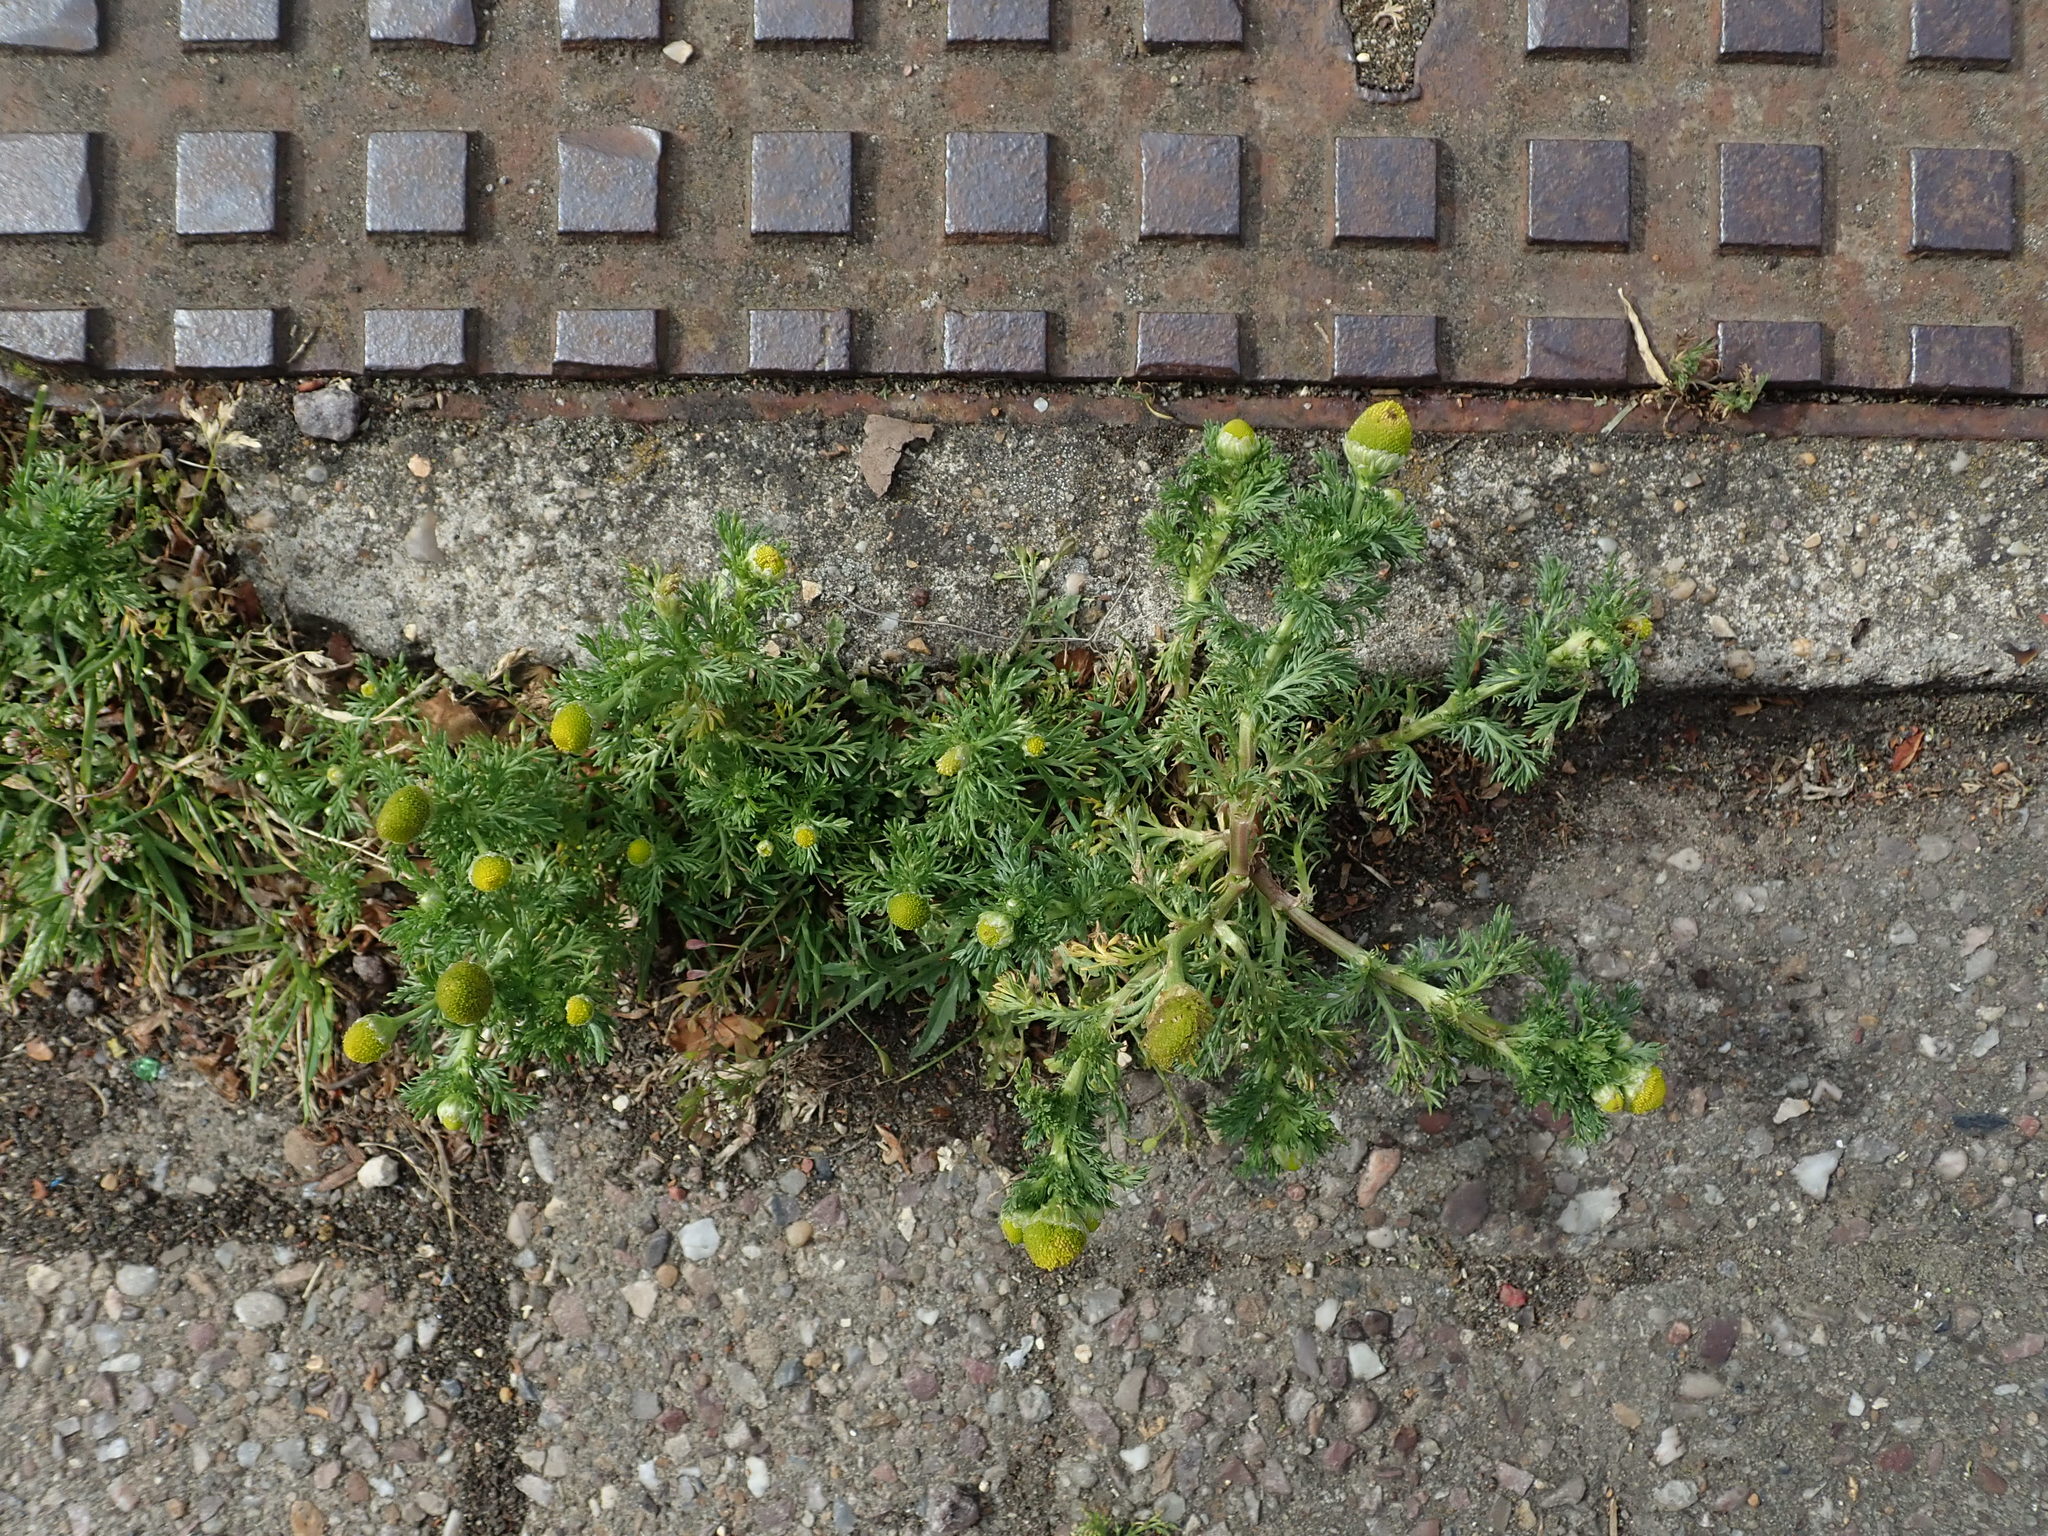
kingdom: Plantae
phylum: Tracheophyta
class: Magnoliopsida
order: Asterales
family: Asteraceae
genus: Matricaria
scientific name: Matricaria discoidea
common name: Disc mayweed
